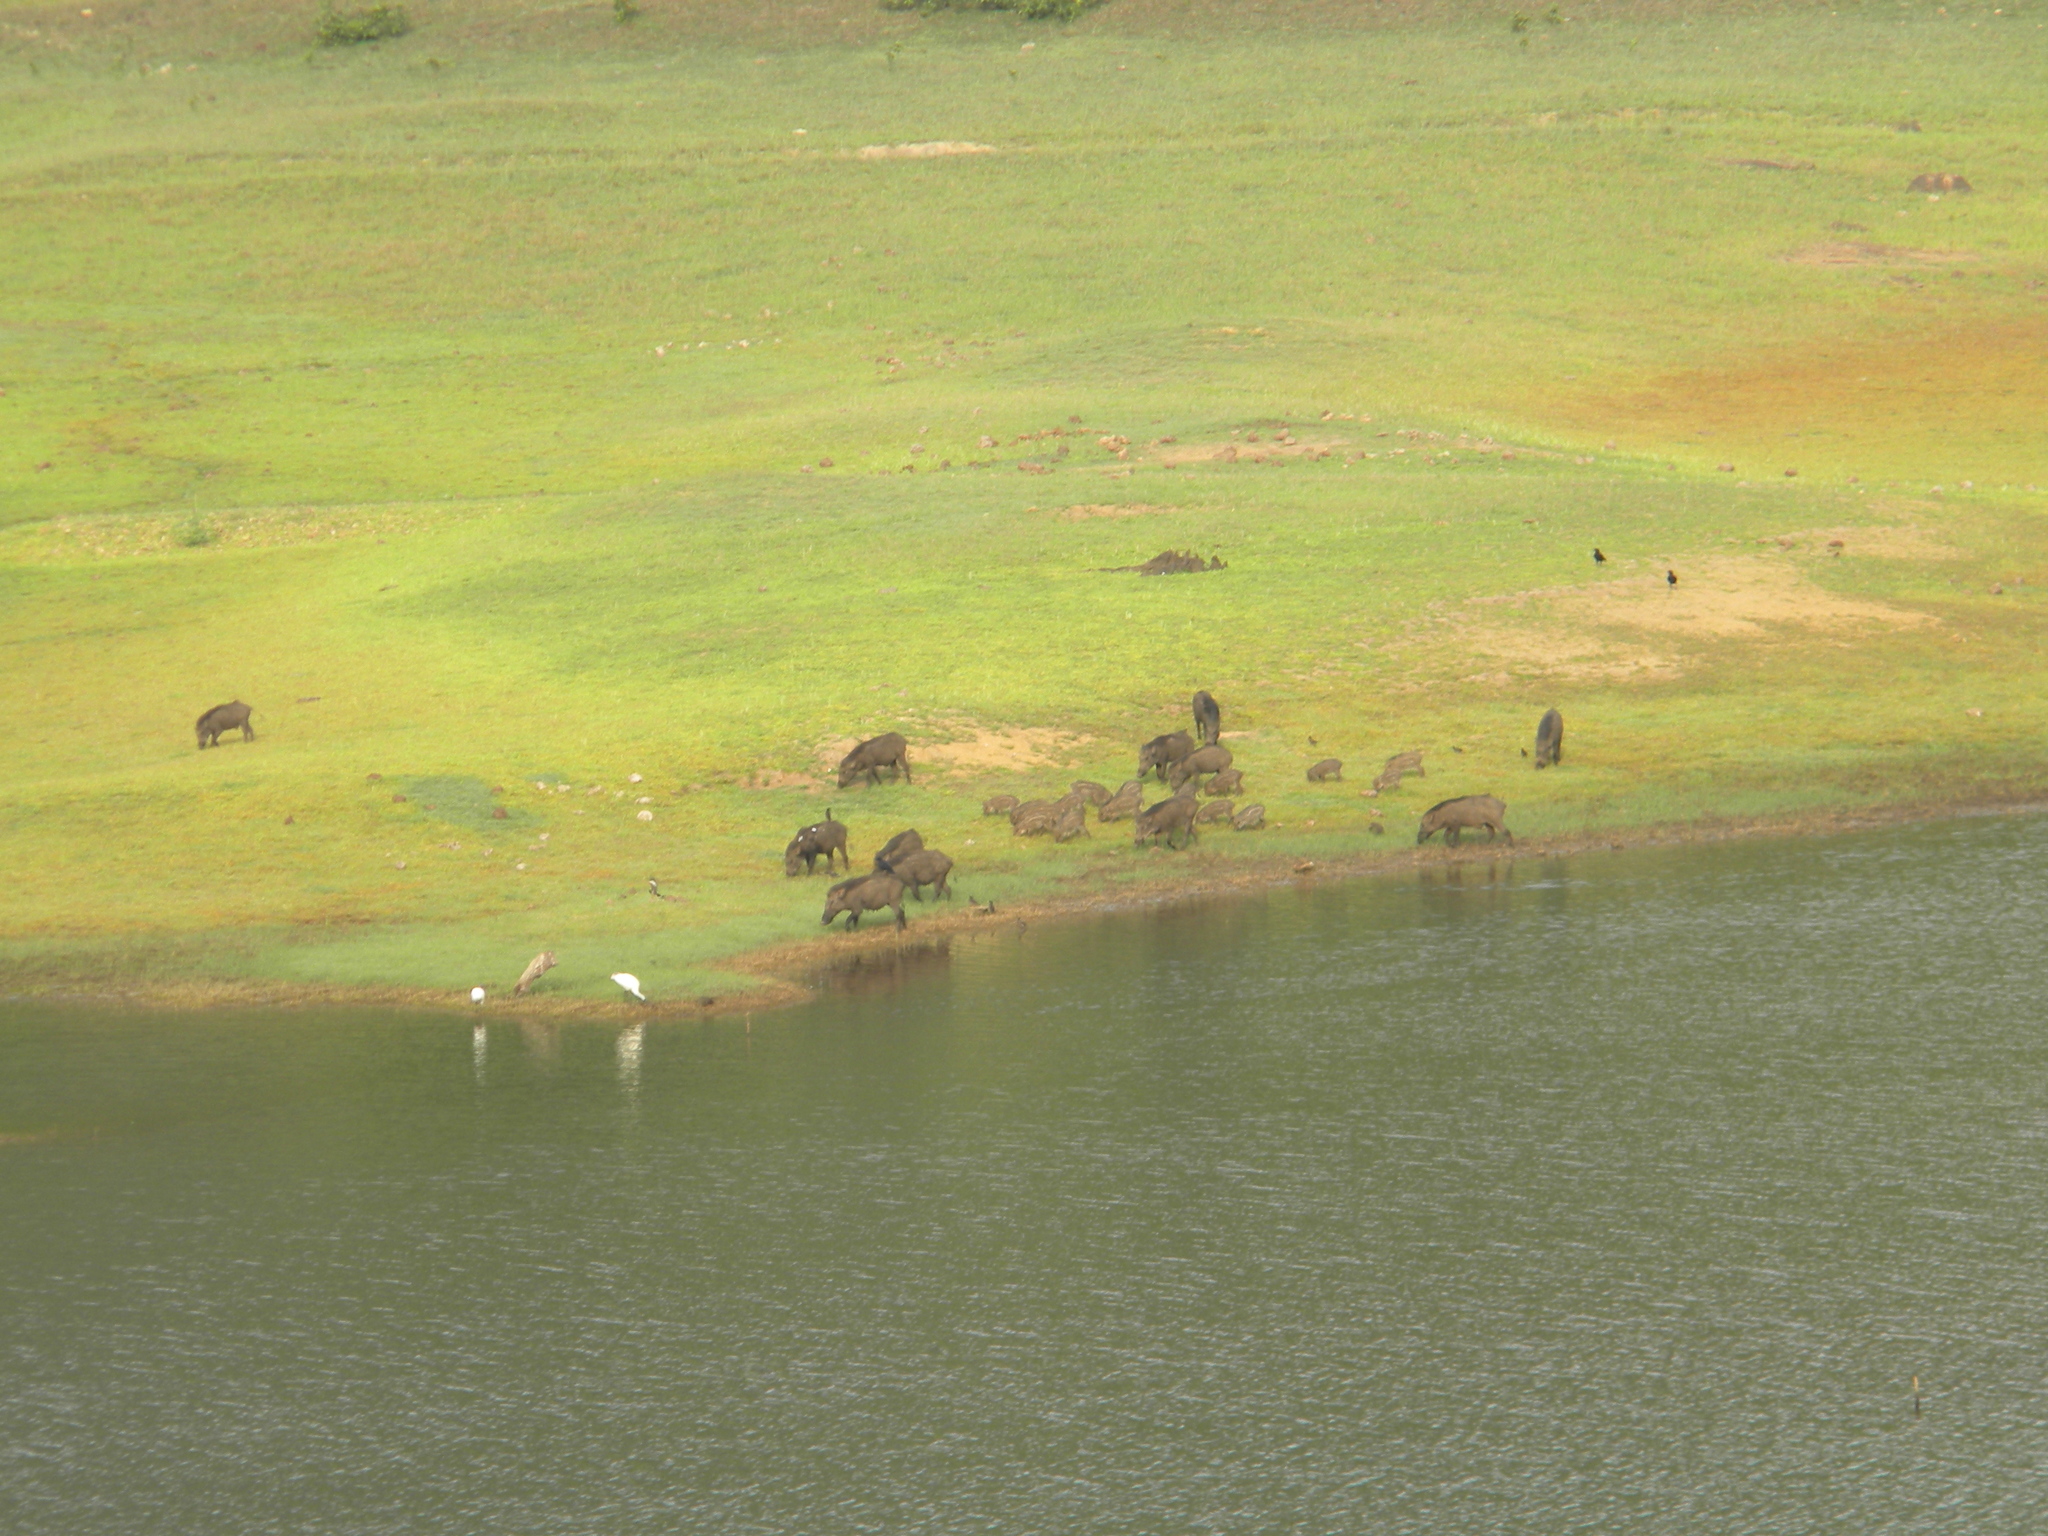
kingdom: Animalia
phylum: Chordata
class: Mammalia
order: Artiodactyla
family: Suidae
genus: Sus
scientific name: Sus scrofa
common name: Wild boar
